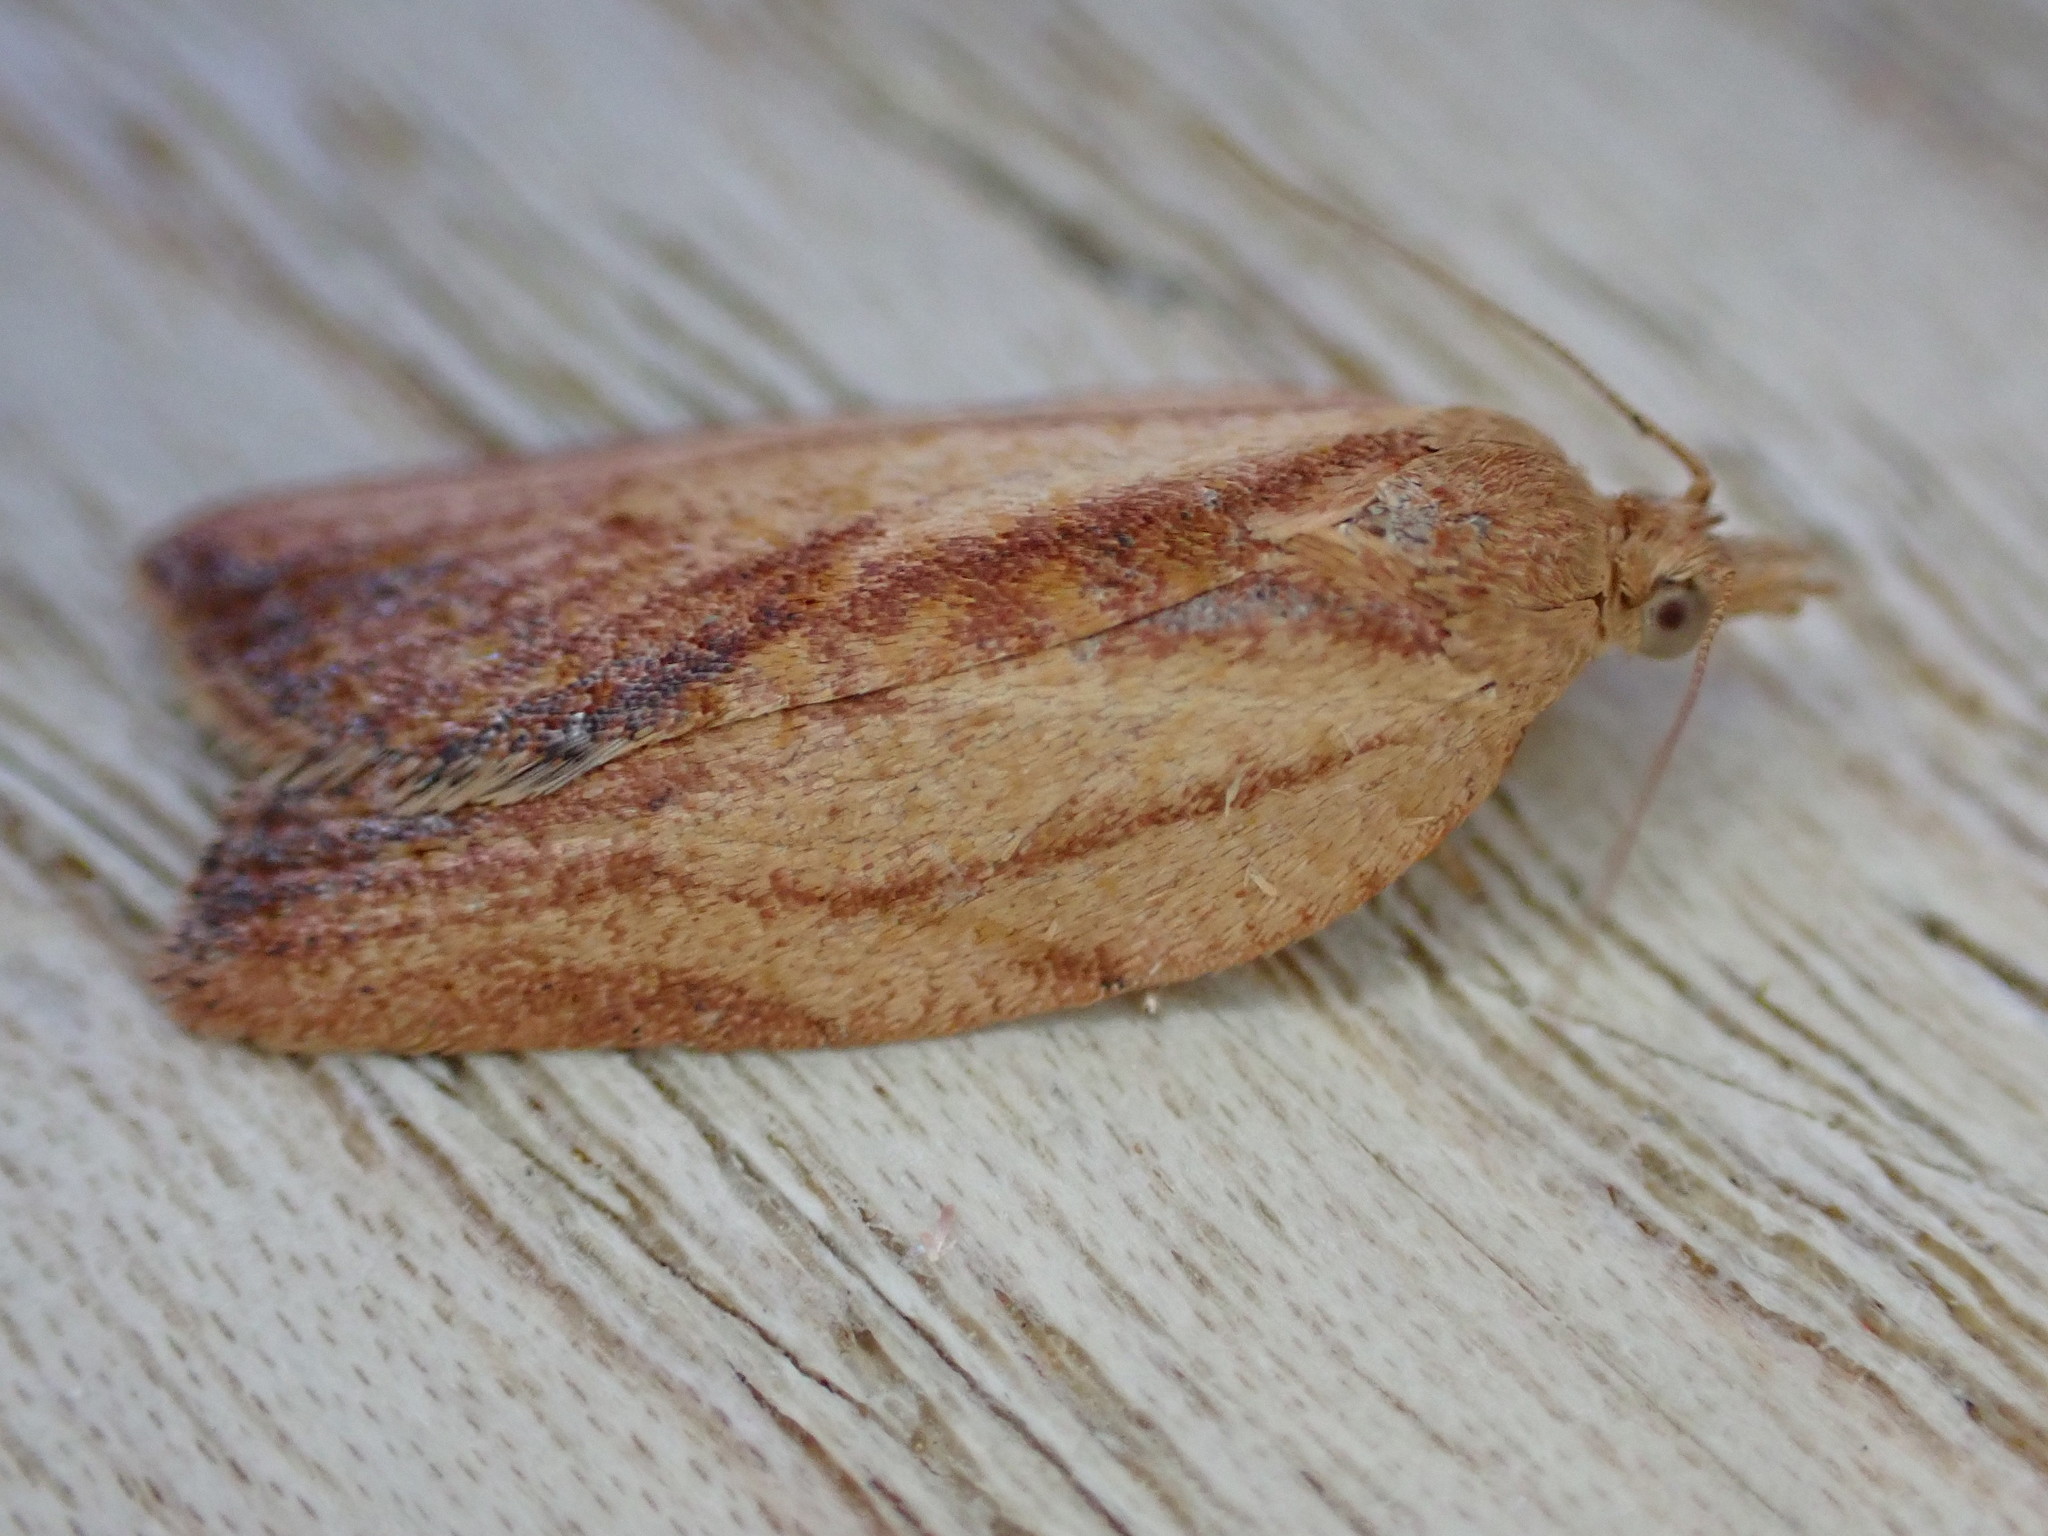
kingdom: Animalia
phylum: Arthropoda
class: Insecta
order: Lepidoptera
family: Tortricidae
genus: Epiphyas
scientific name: Epiphyas postvittana
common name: Light brown apple moth
